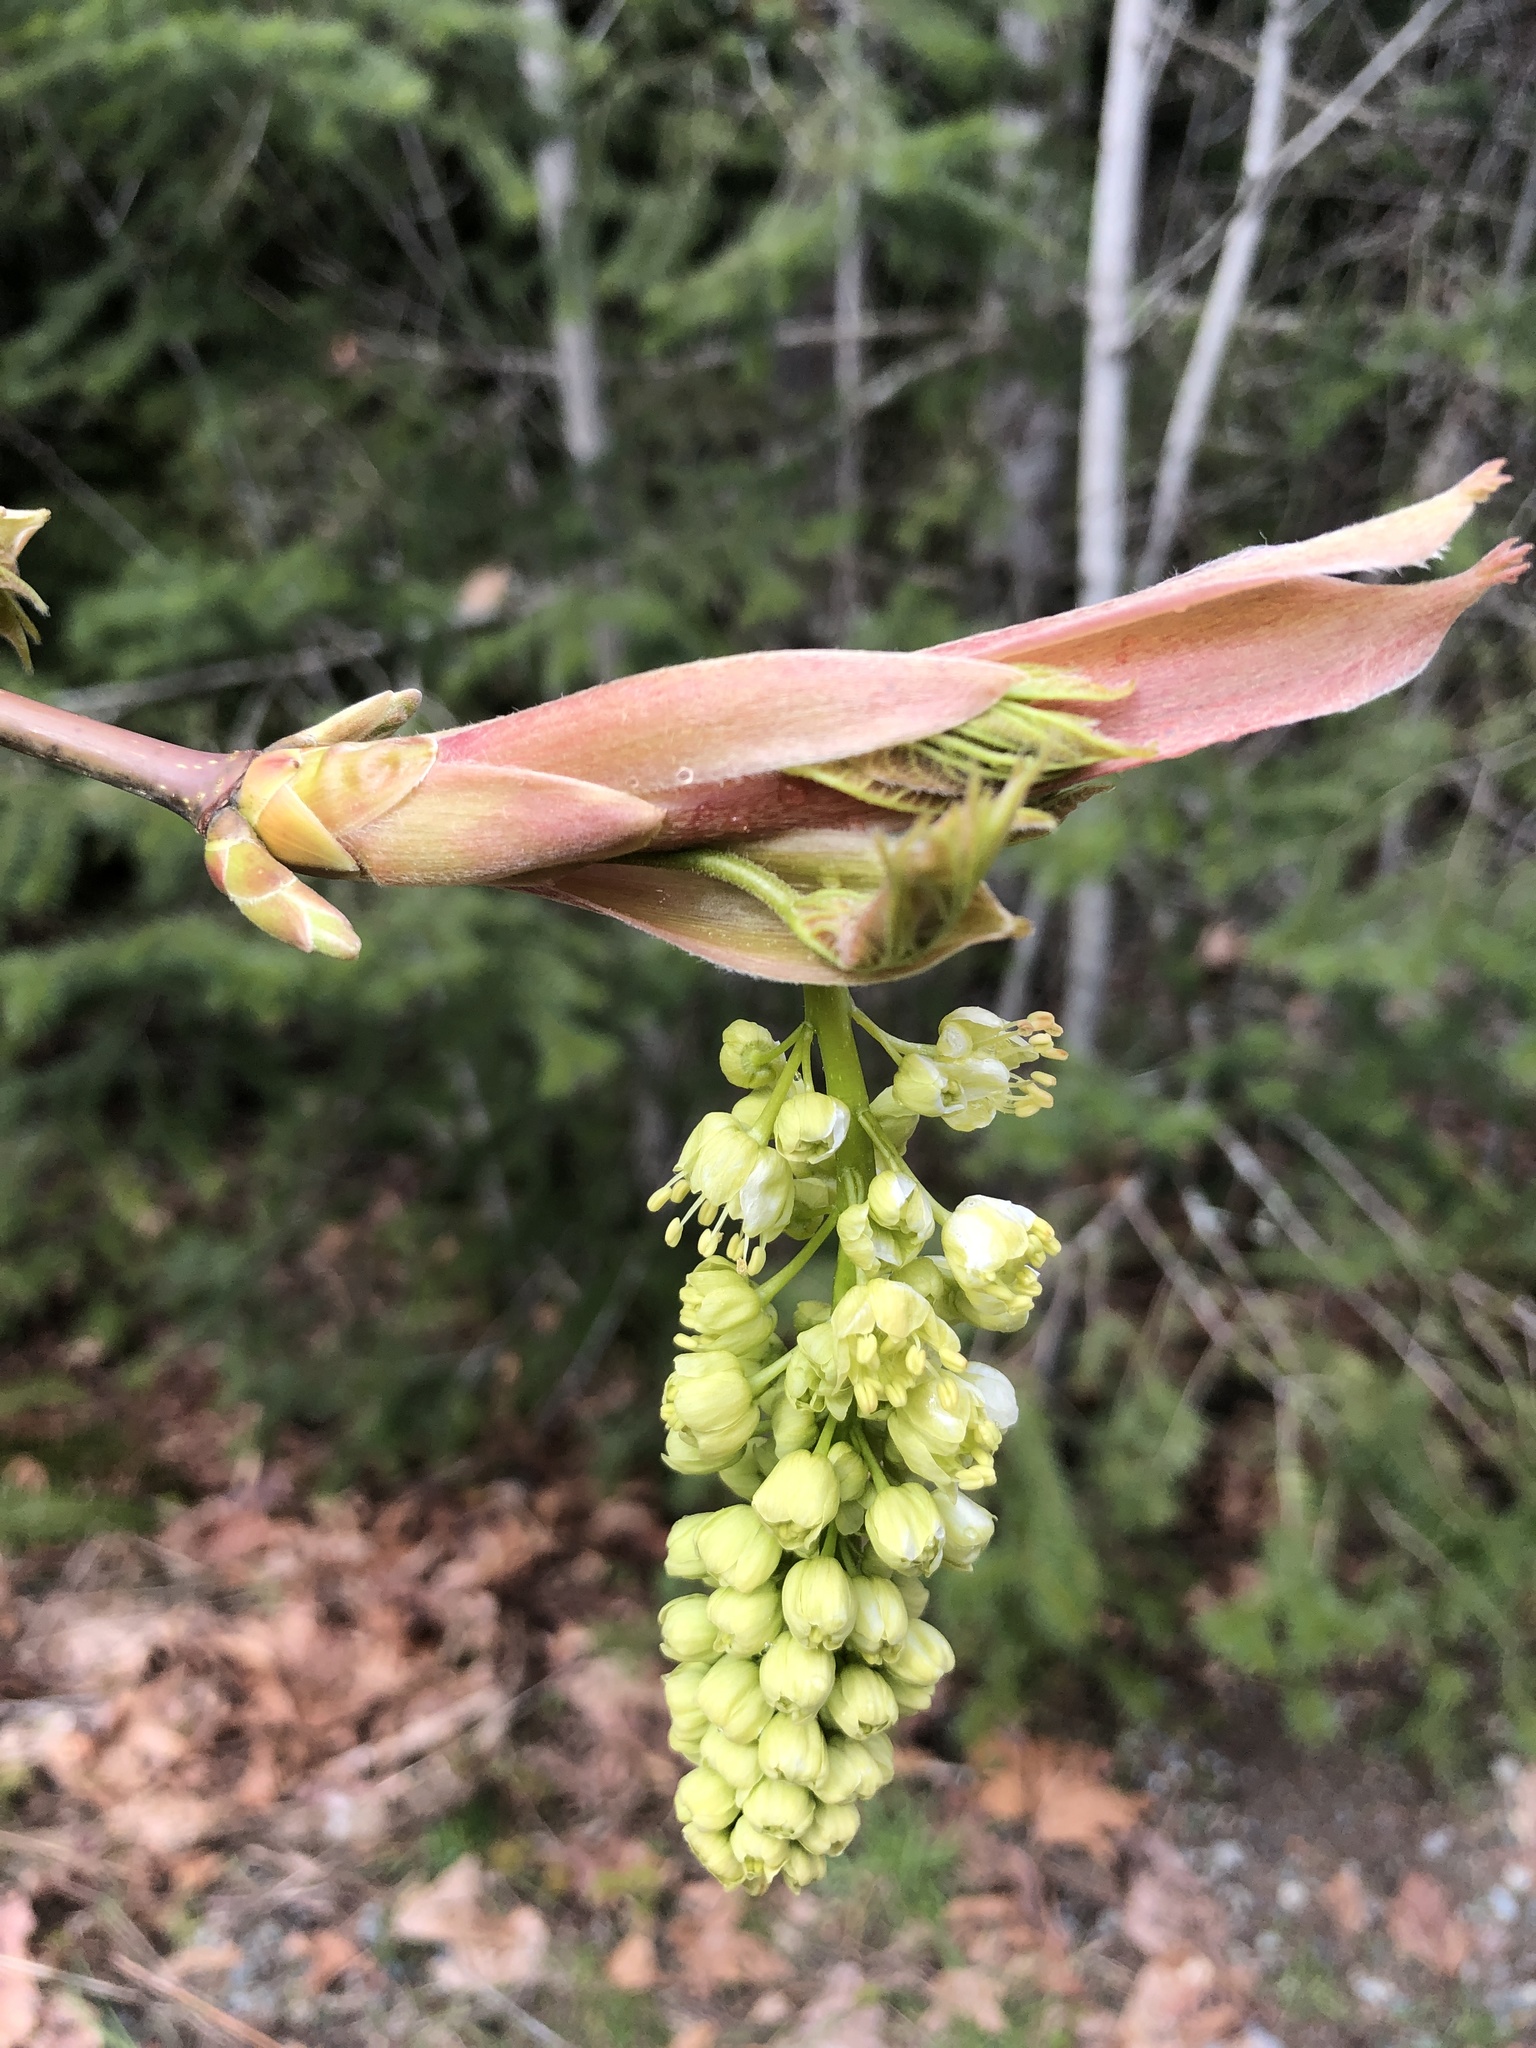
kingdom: Plantae
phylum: Tracheophyta
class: Magnoliopsida
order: Sapindales
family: Sapindaceae
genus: Acer
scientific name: Acer macrophyllum
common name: Oregon maple
